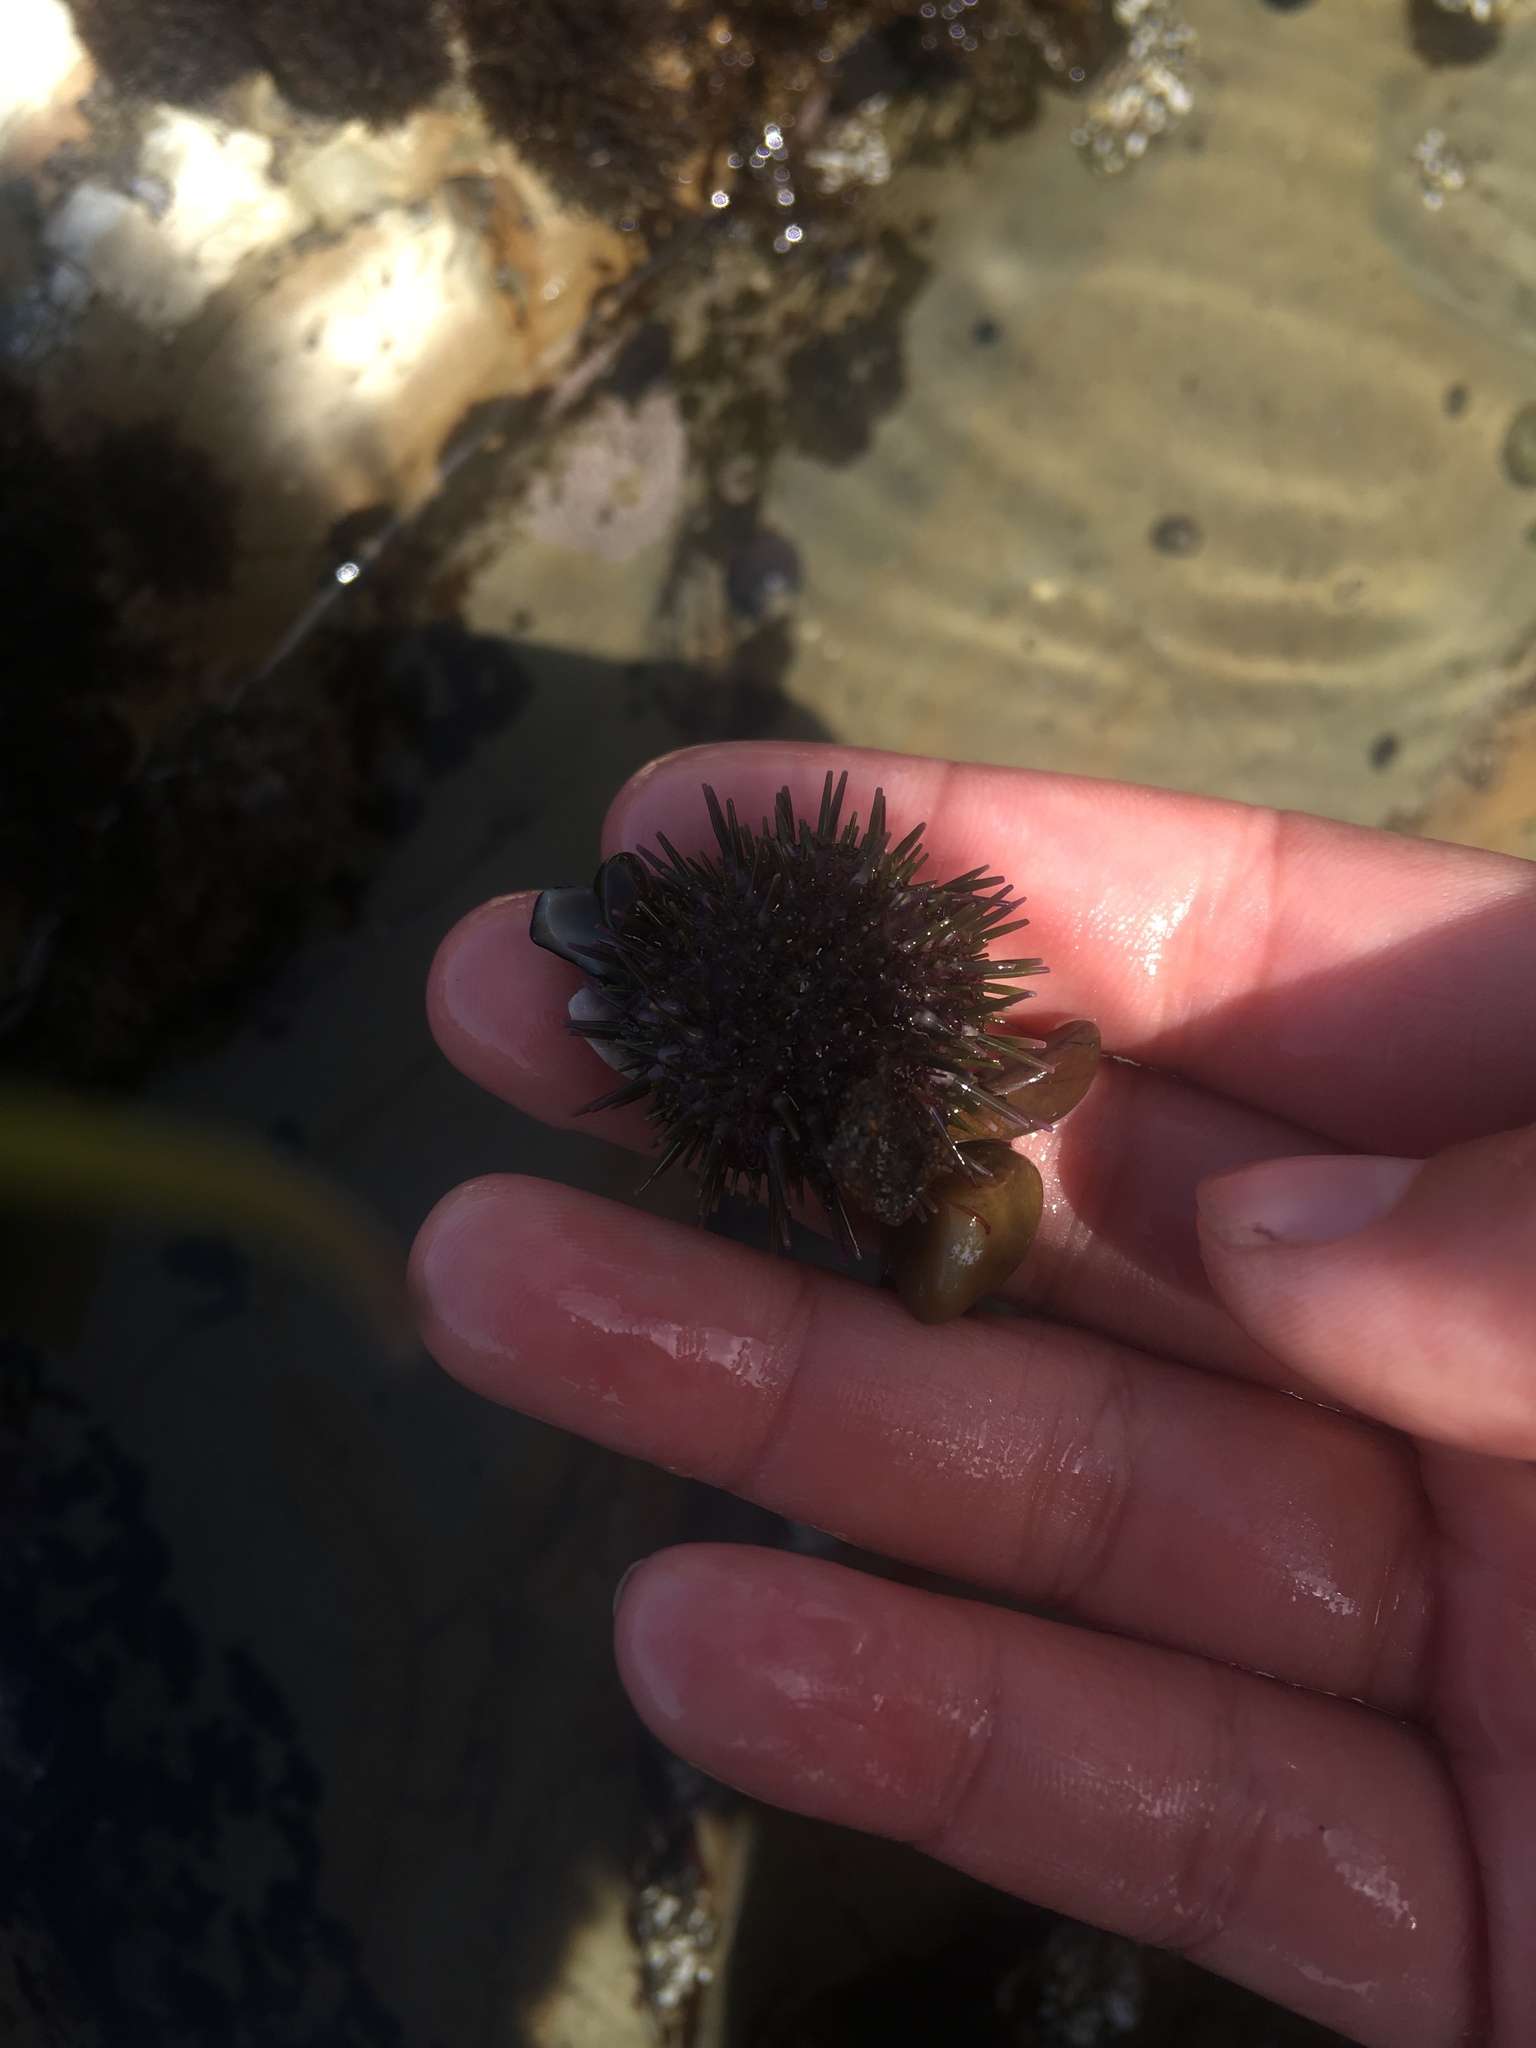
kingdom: Animalia
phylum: Echinodermata
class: Echinoidea
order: Camarodonta
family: Strongylocentrotidae
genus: Strongylocentrotus
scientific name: Strongylocentrotus purpuratus
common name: Purple sea urchin
